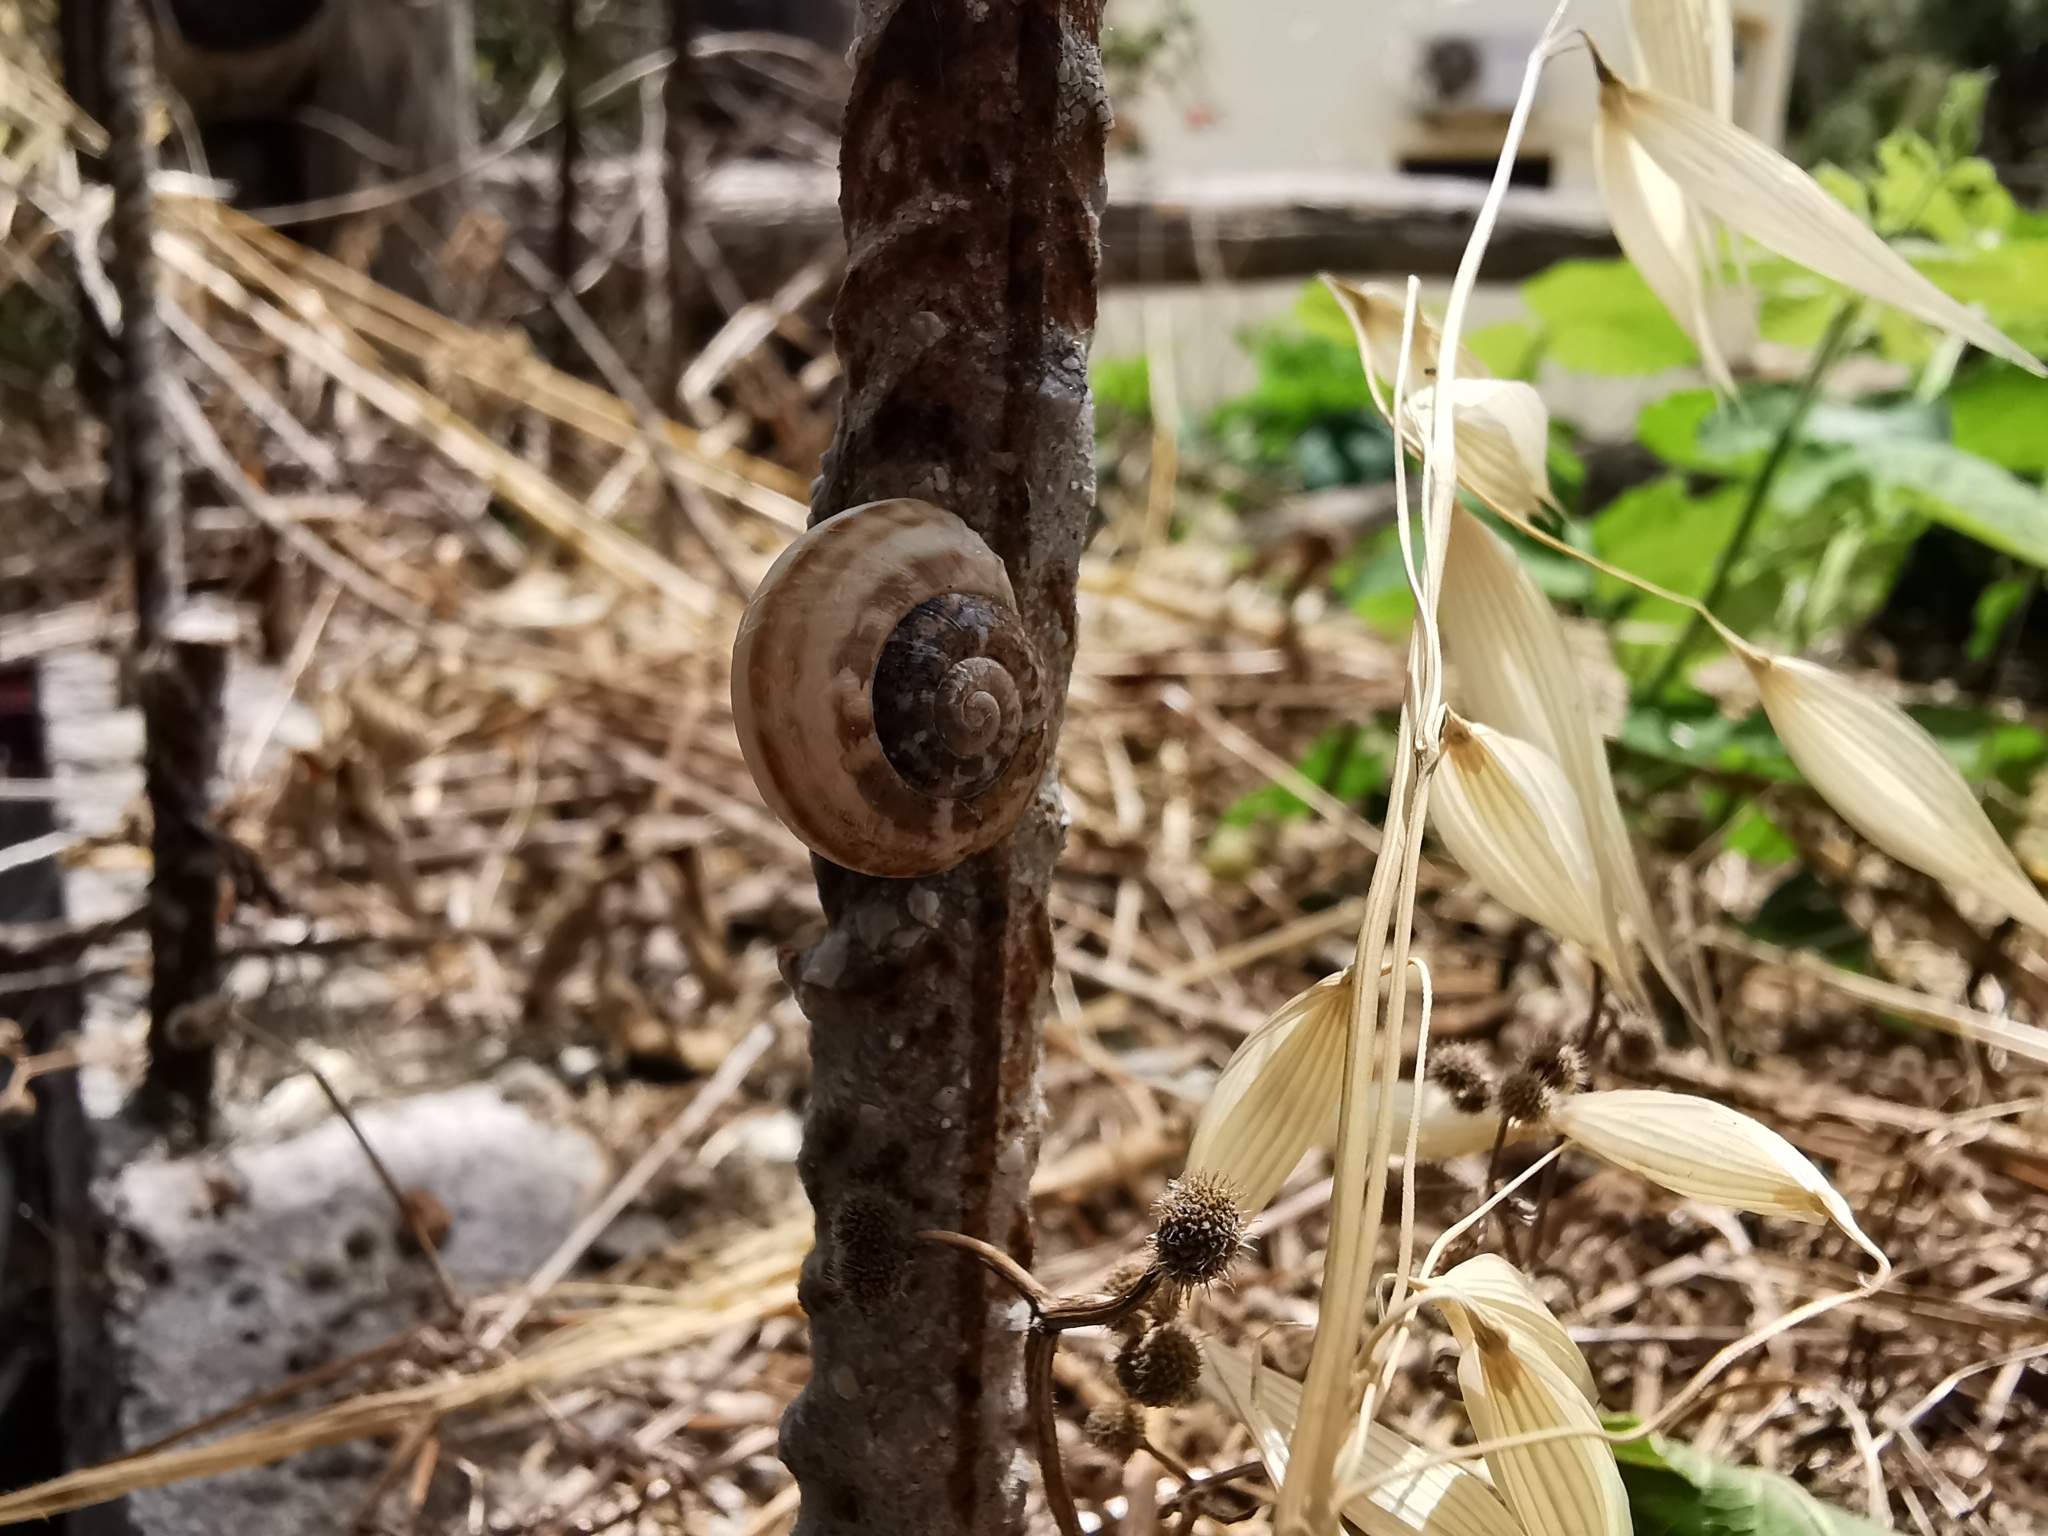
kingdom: Animalia
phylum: Mollusca
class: Gastropoda
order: Stylommatophora
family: Helicidae
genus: Eobania
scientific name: Eobania vermiculata
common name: Chocolateband snail
